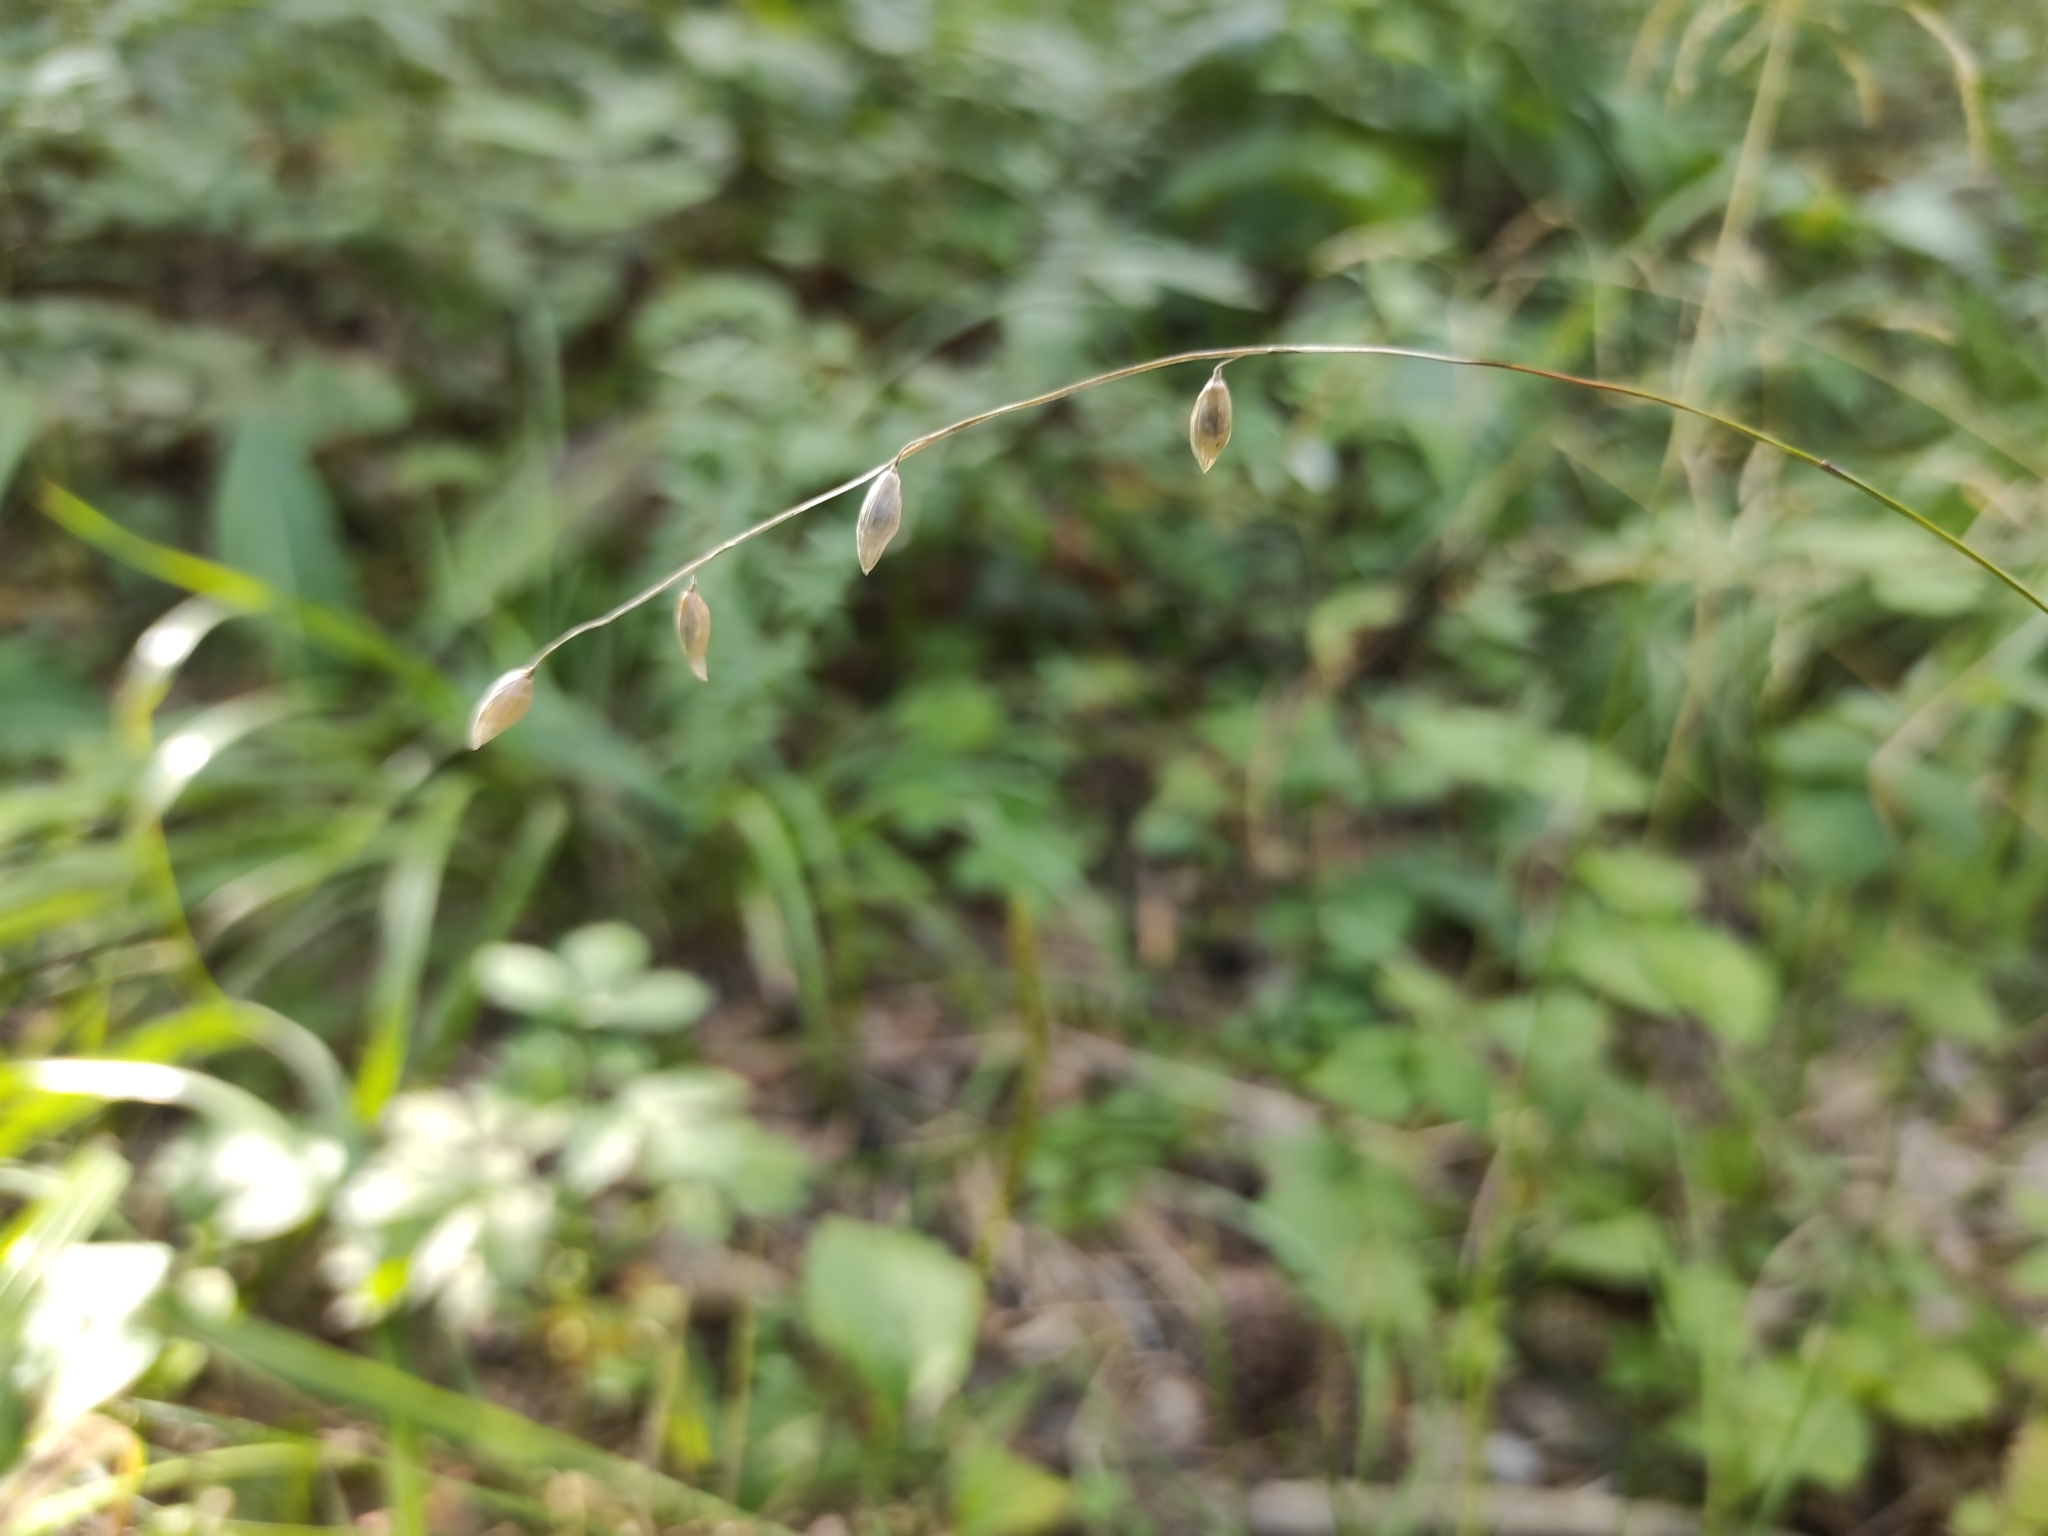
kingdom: Plantae
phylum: Tracheophyta
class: Liliopsida
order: Poales
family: Poaceae
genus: Melica
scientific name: Melica nutans
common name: Mountain melick
